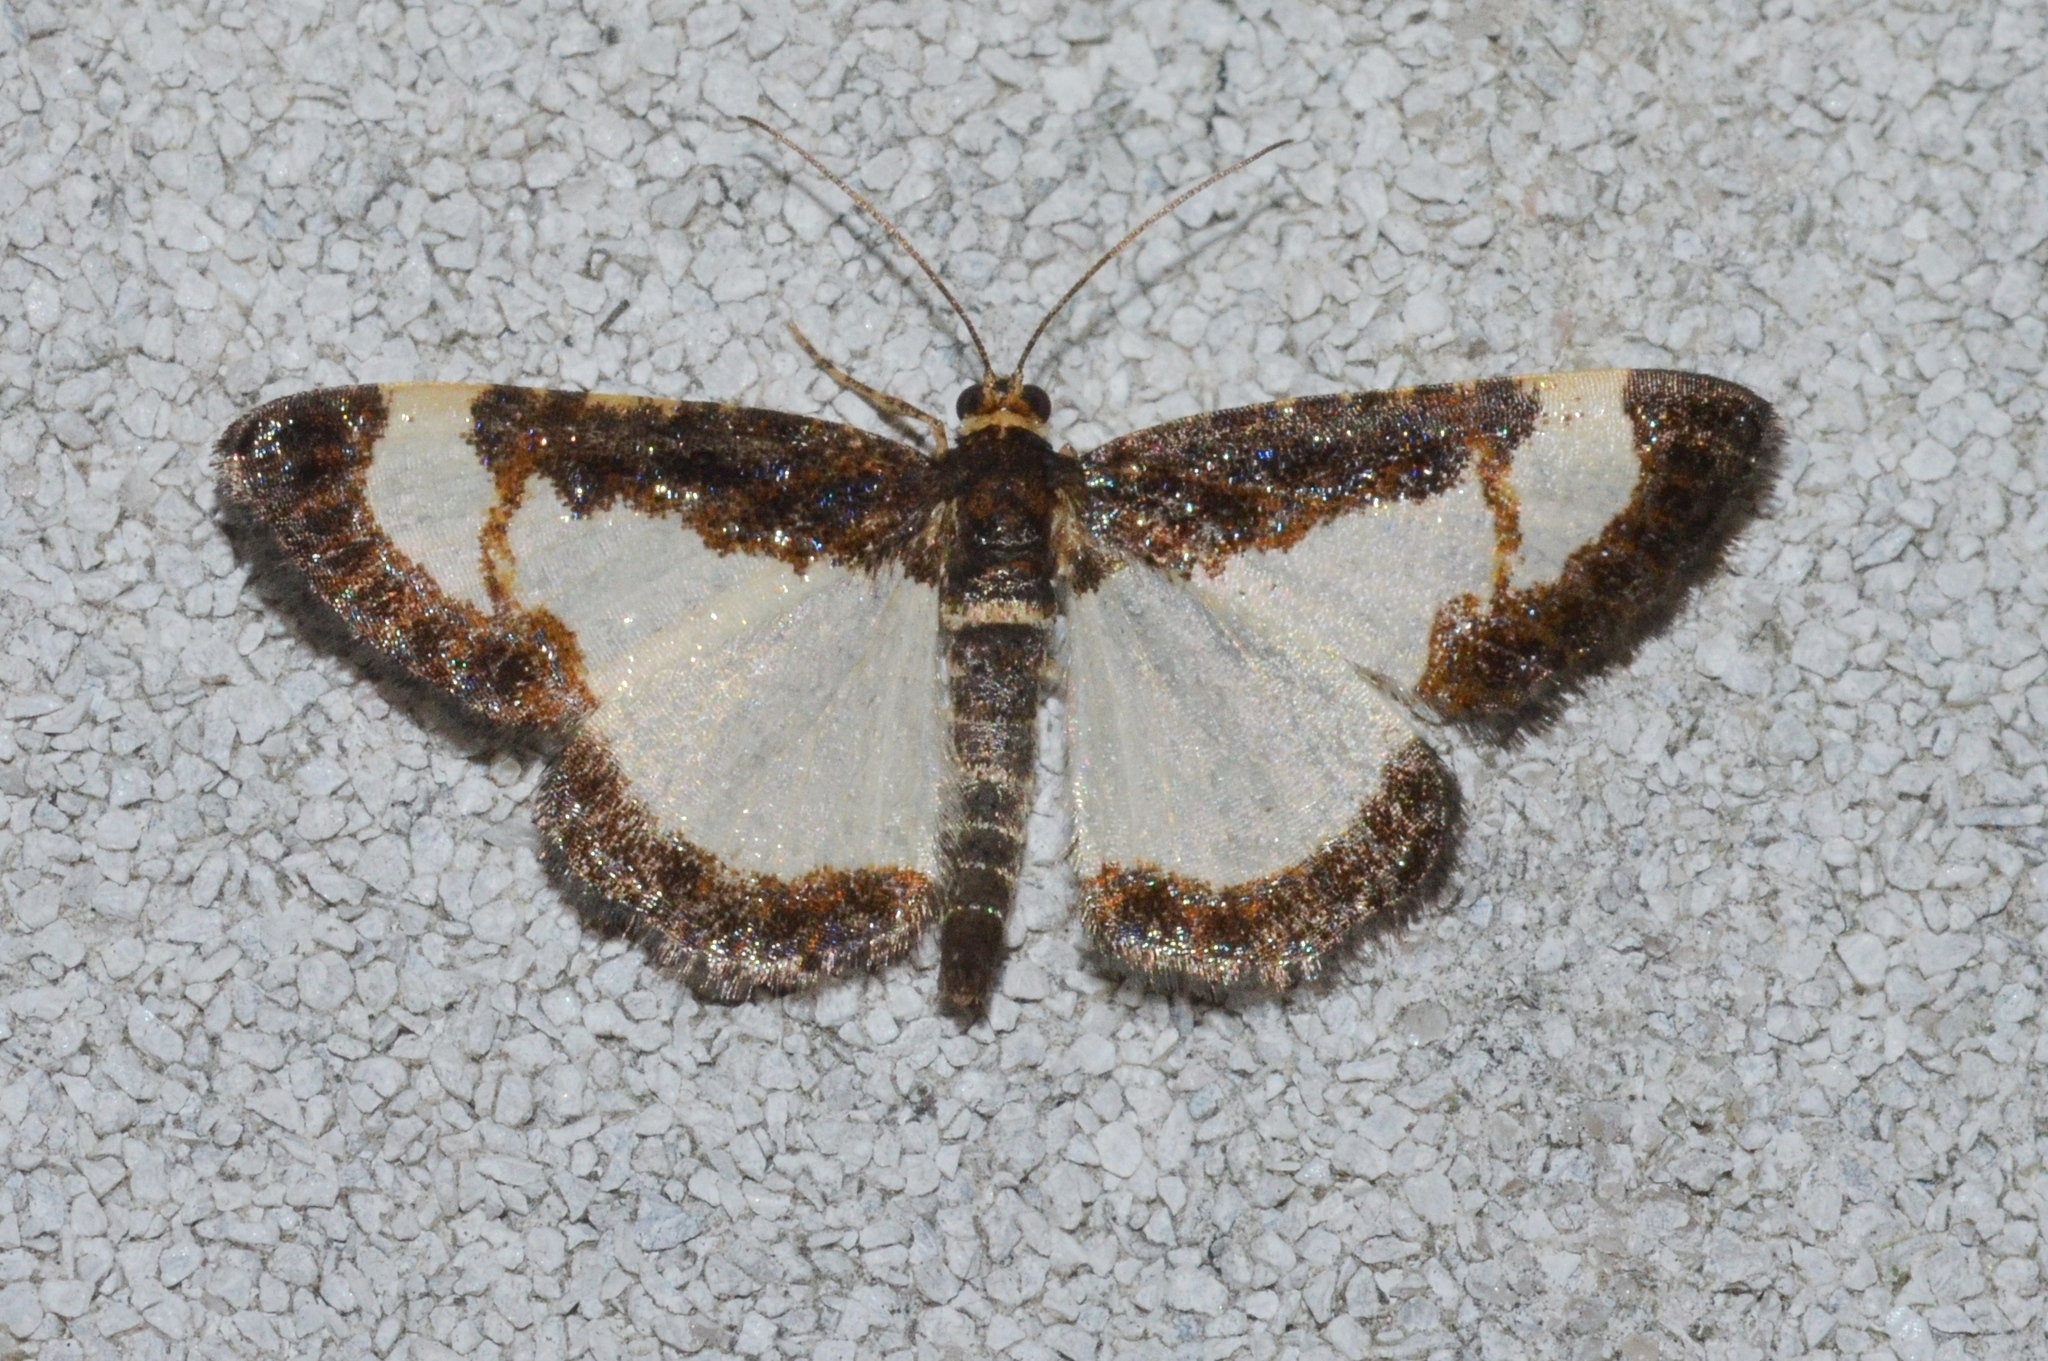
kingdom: Animalia
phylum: Arthropoda
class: Insecta
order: Lepidoptera
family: Geometridae
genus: Heliomata
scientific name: Heliomata cycladata
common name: Common spring moth
